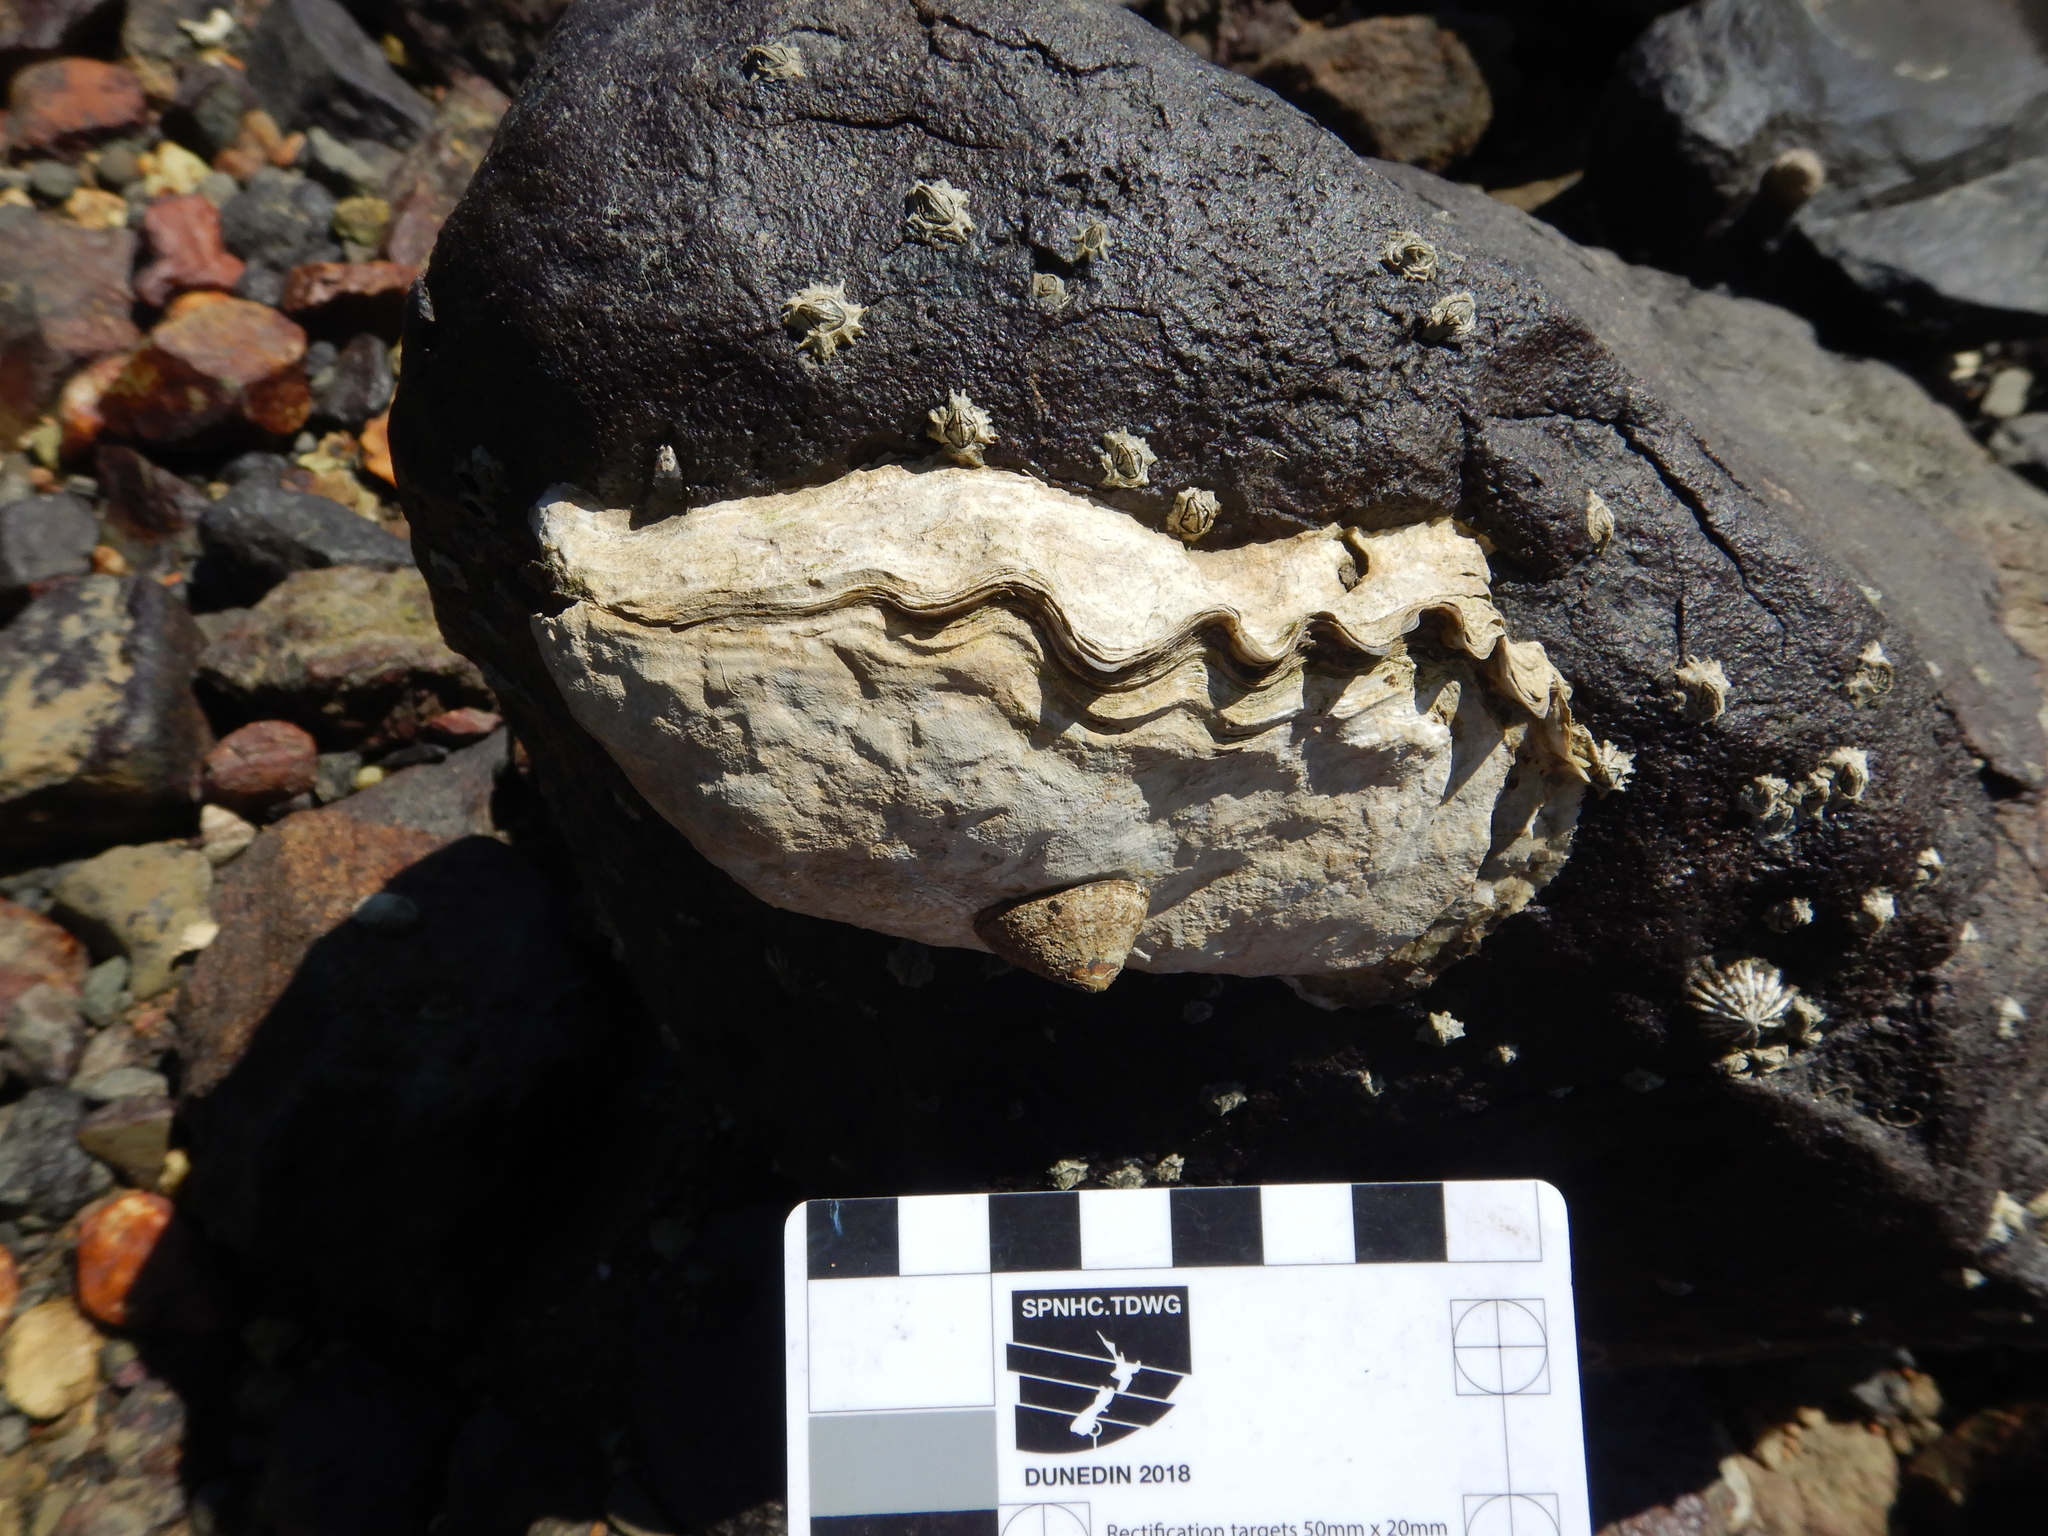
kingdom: Animalia
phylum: Mollusca
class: Bivalvia
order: Ostreida
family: Ostreidae
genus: Magallana
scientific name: Magallana gigas
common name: Pacific oyster
